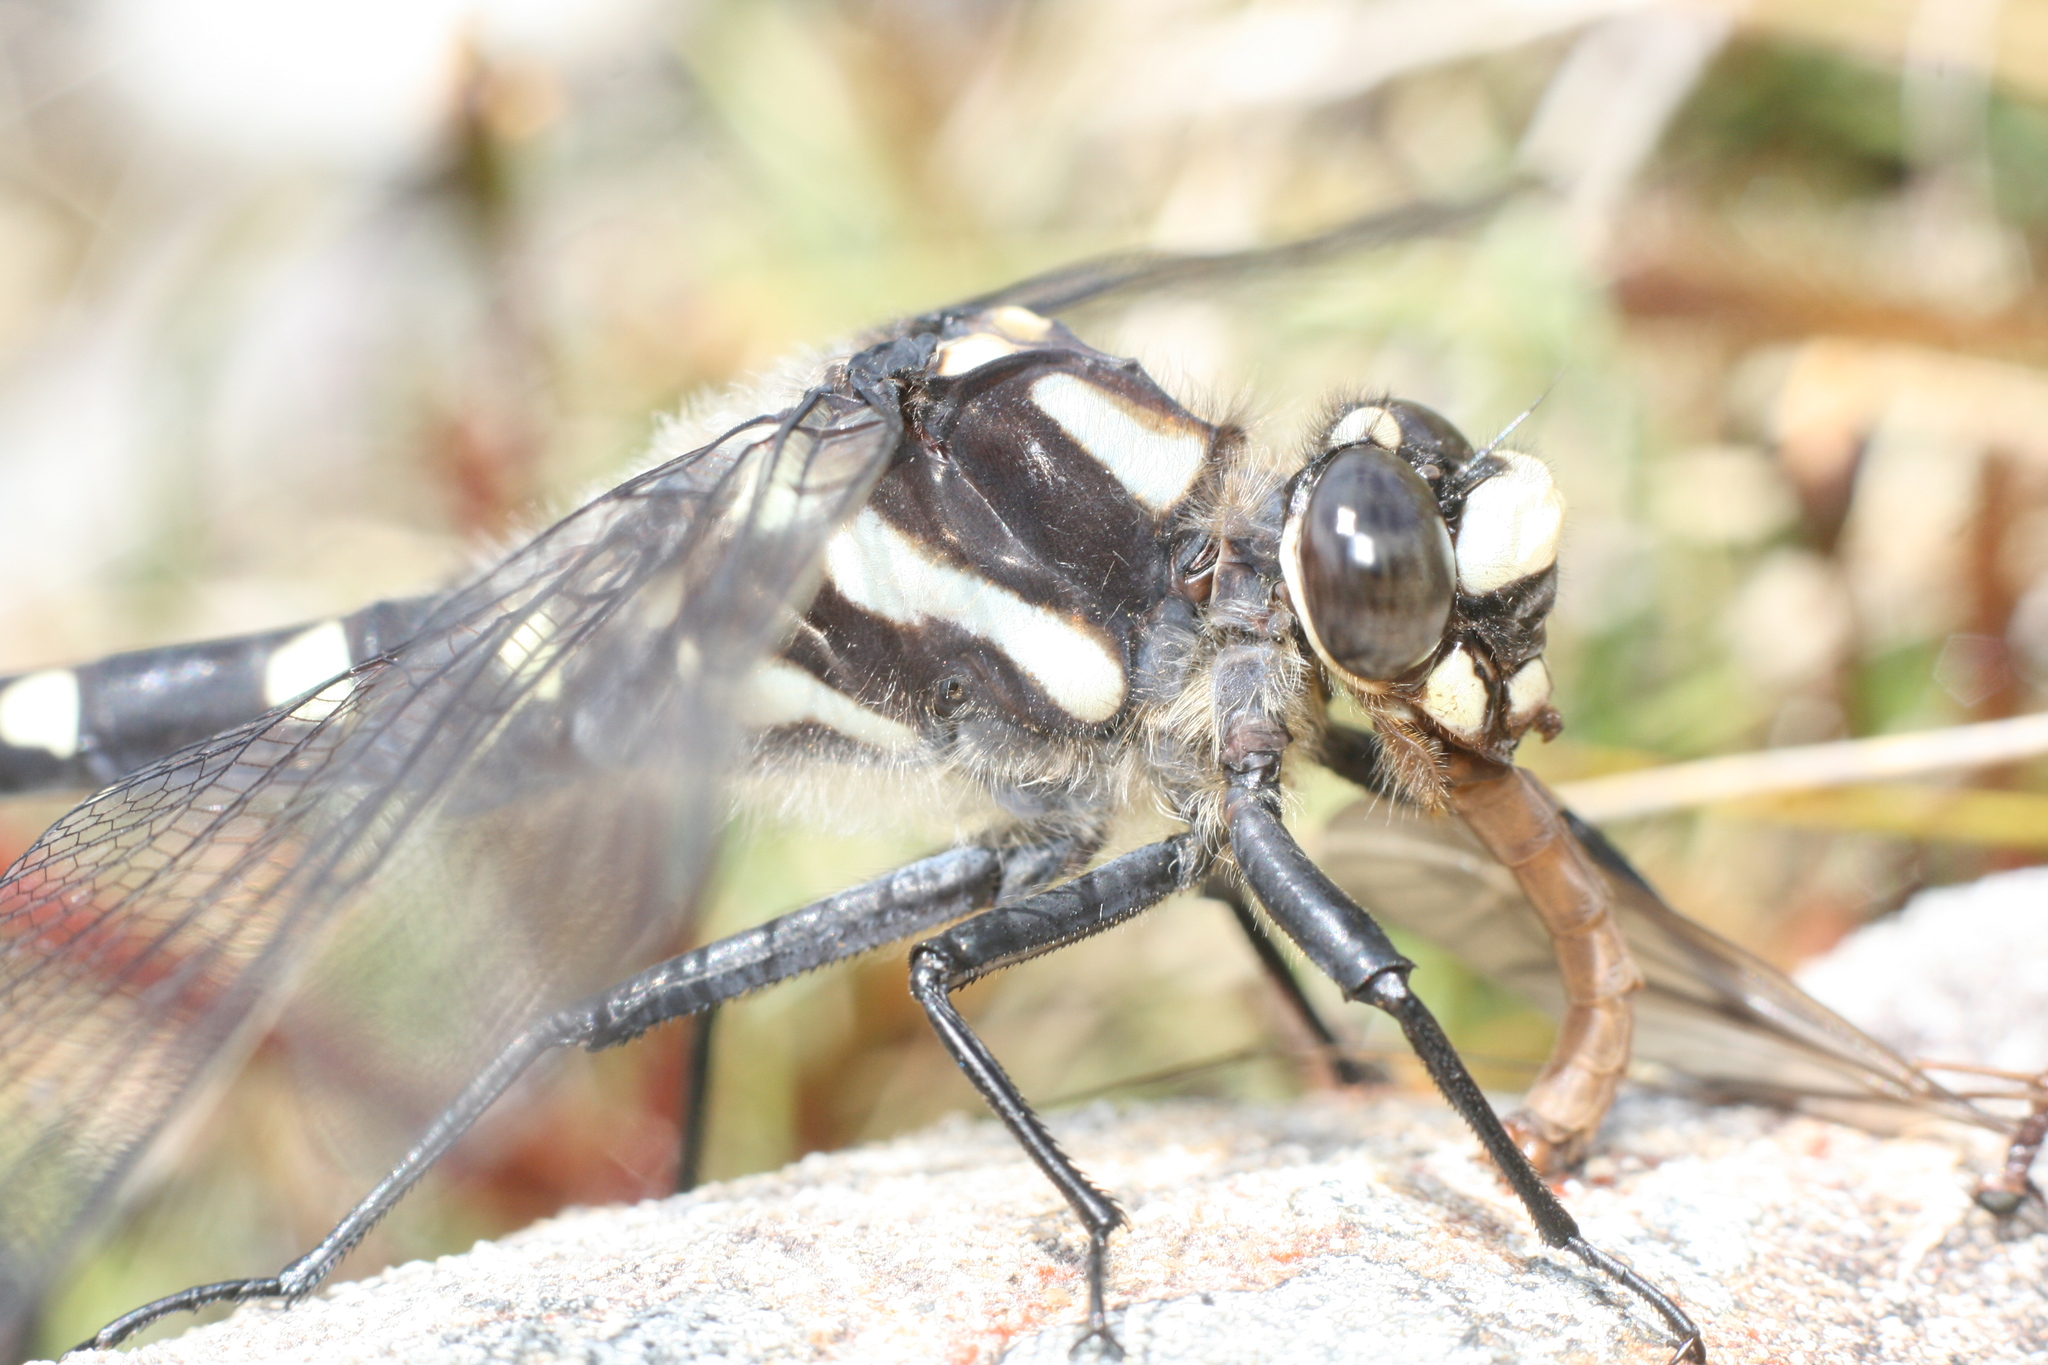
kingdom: Animalia
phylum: Arthropoda
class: Insecta
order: Odonata
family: Petaluridae
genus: Uropetala
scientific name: Uropetala chiltoni
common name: Mountain giant dragonfly
